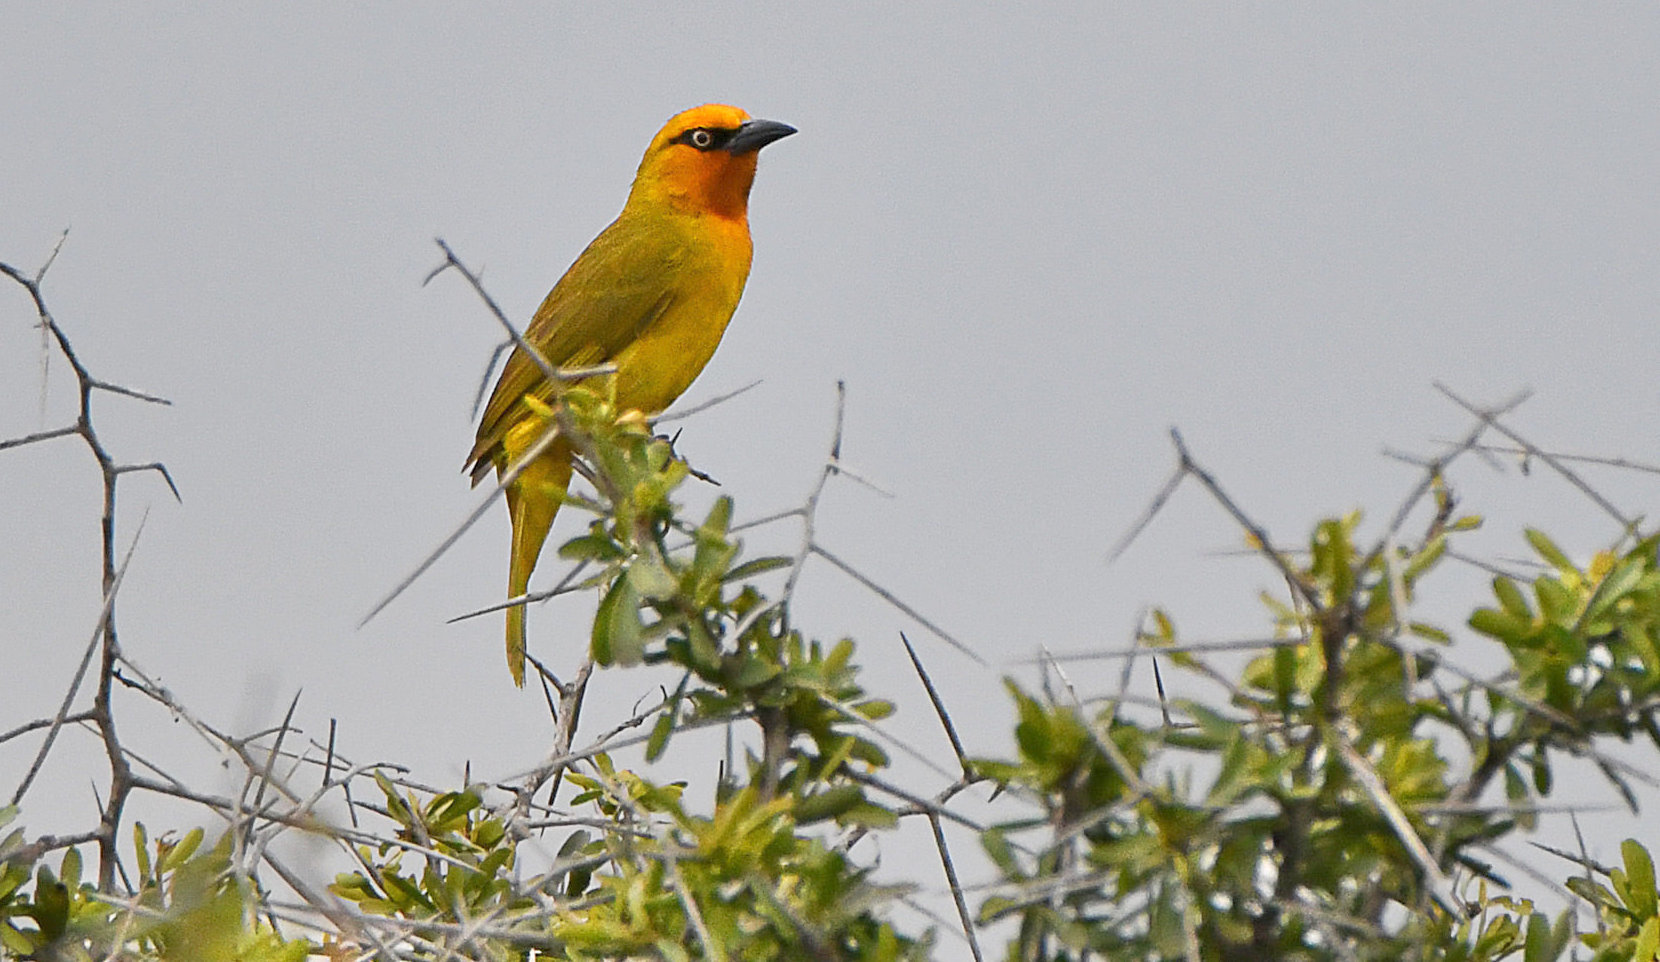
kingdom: Animalia
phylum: Chordata
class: Aves
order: Passeriformes
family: Ploceidae
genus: Ploceus
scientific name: Ploceus ocularis
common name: Spectacled weaver
